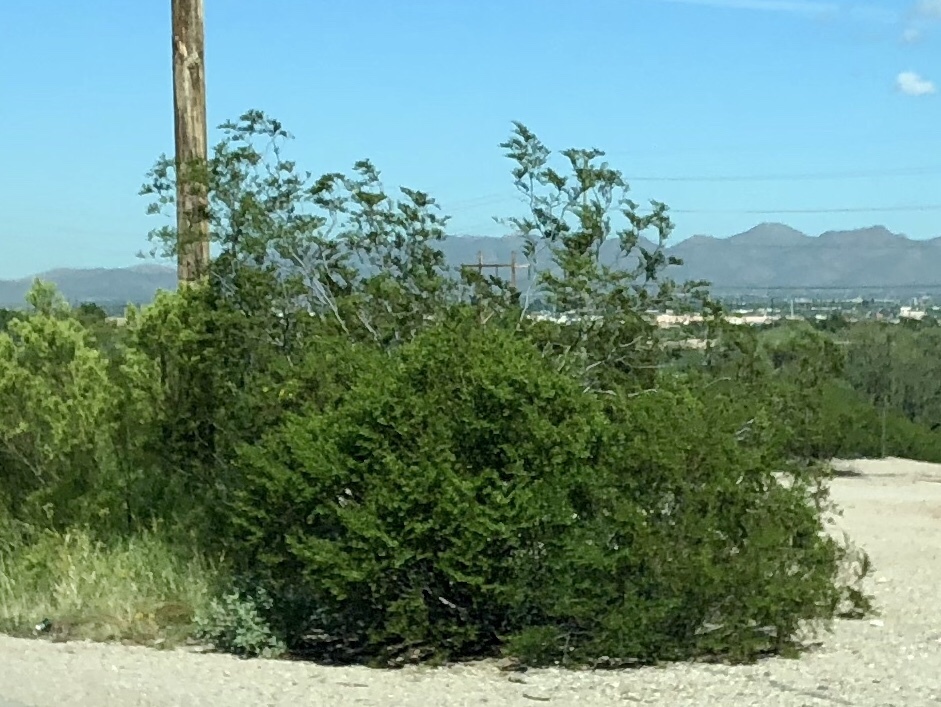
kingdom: Plantae
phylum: Tracheophyta
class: Magnoliopsida
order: Zygophyllales
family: Zygophyllaceae
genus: Larrea
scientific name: Larrea tridentata
